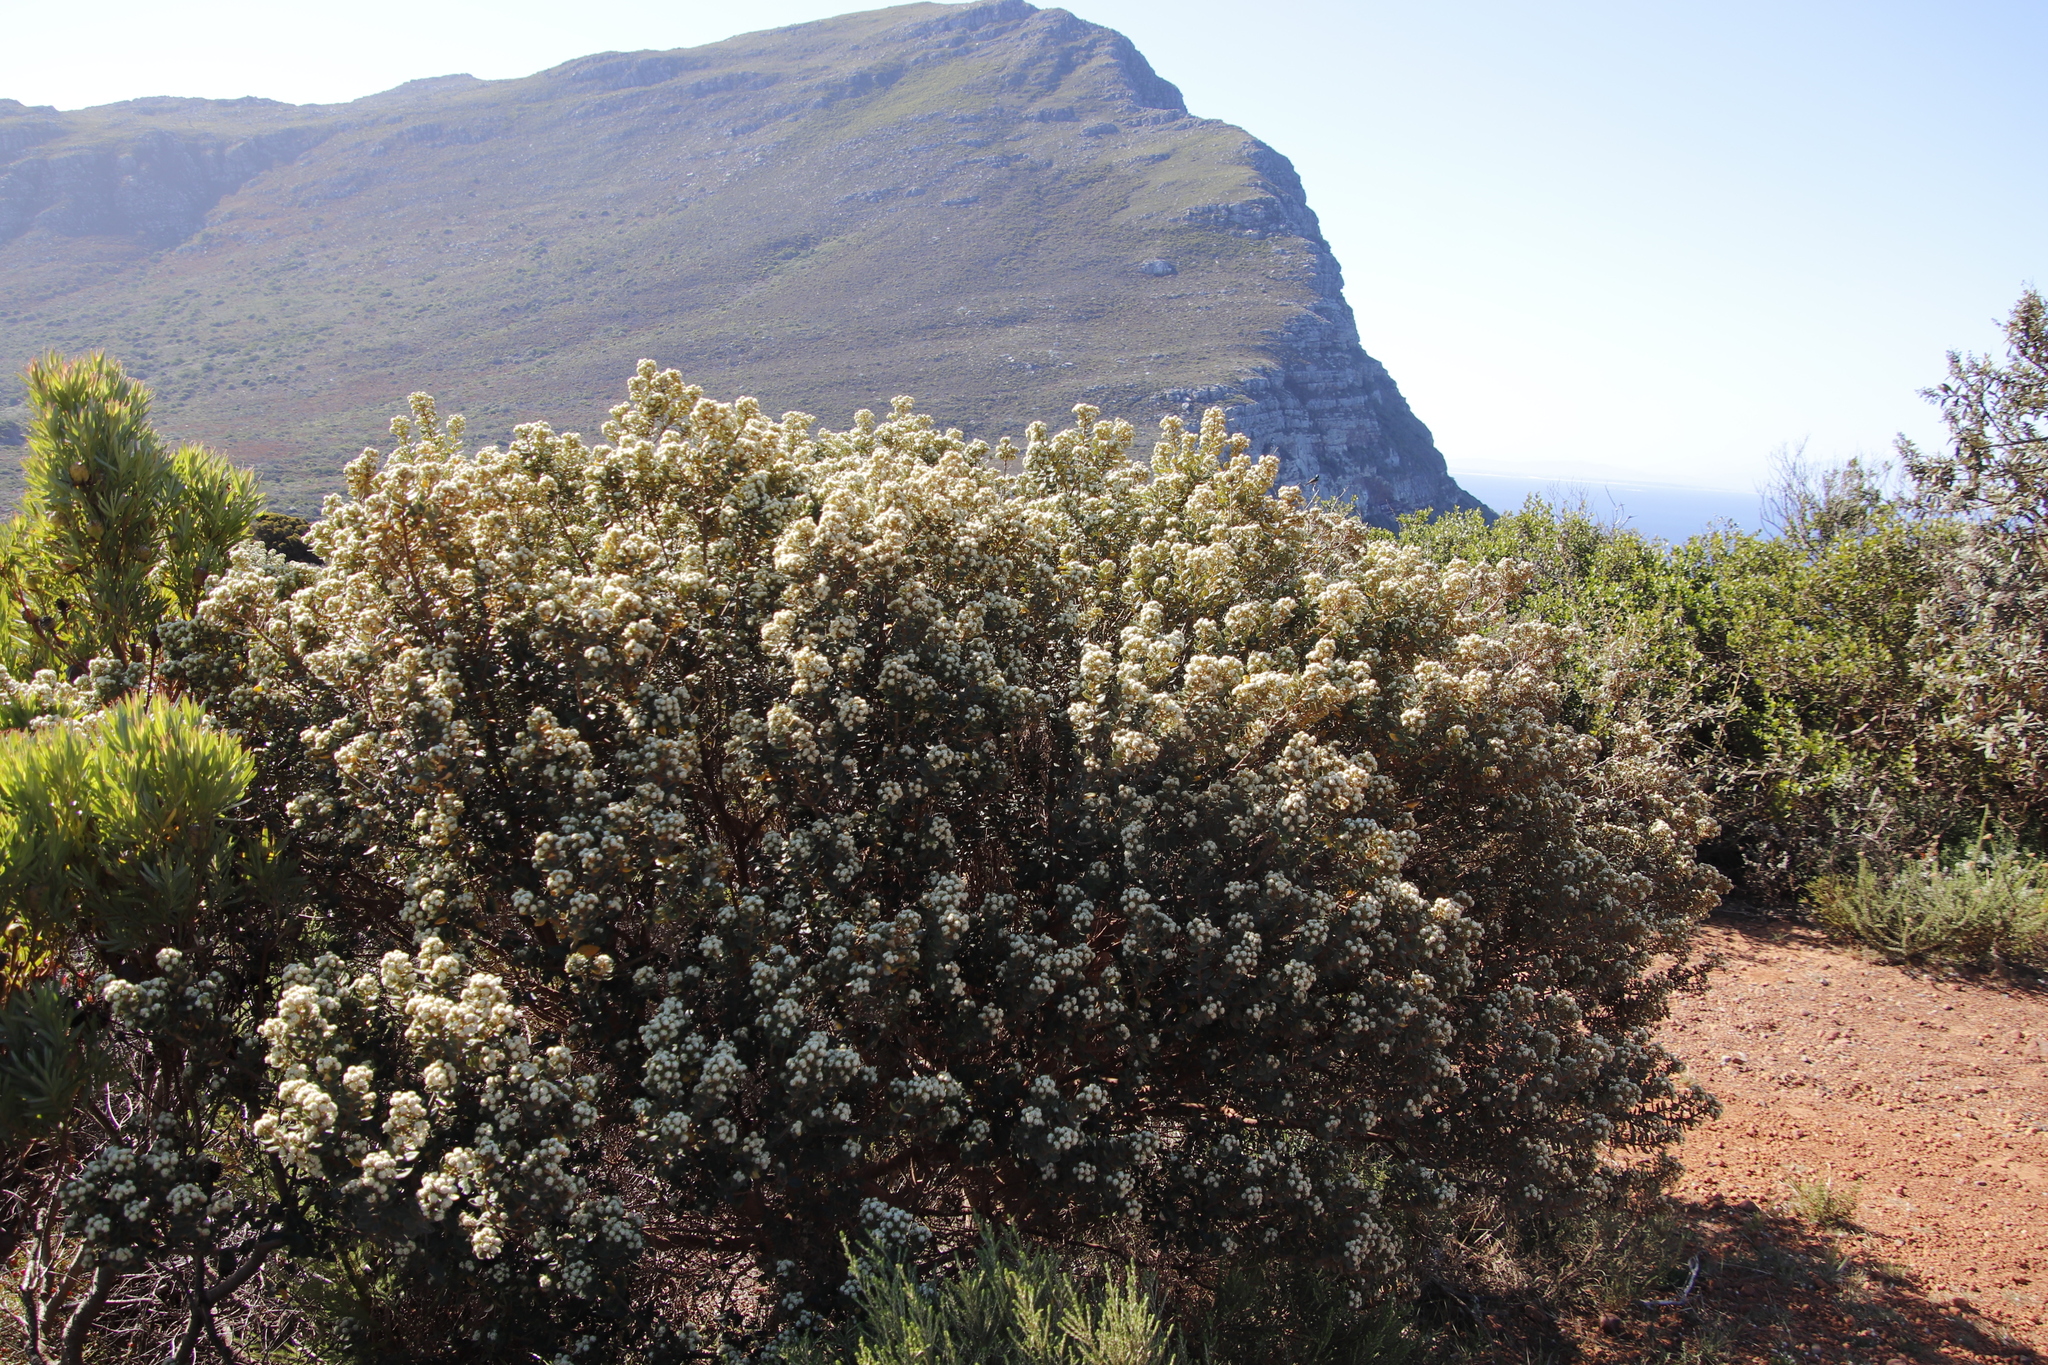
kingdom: Plantae
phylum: Tracheophyta
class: Magnoliopsida
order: Rosales
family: Rhamnaceae
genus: Phylica
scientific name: Phylica buxifolia
